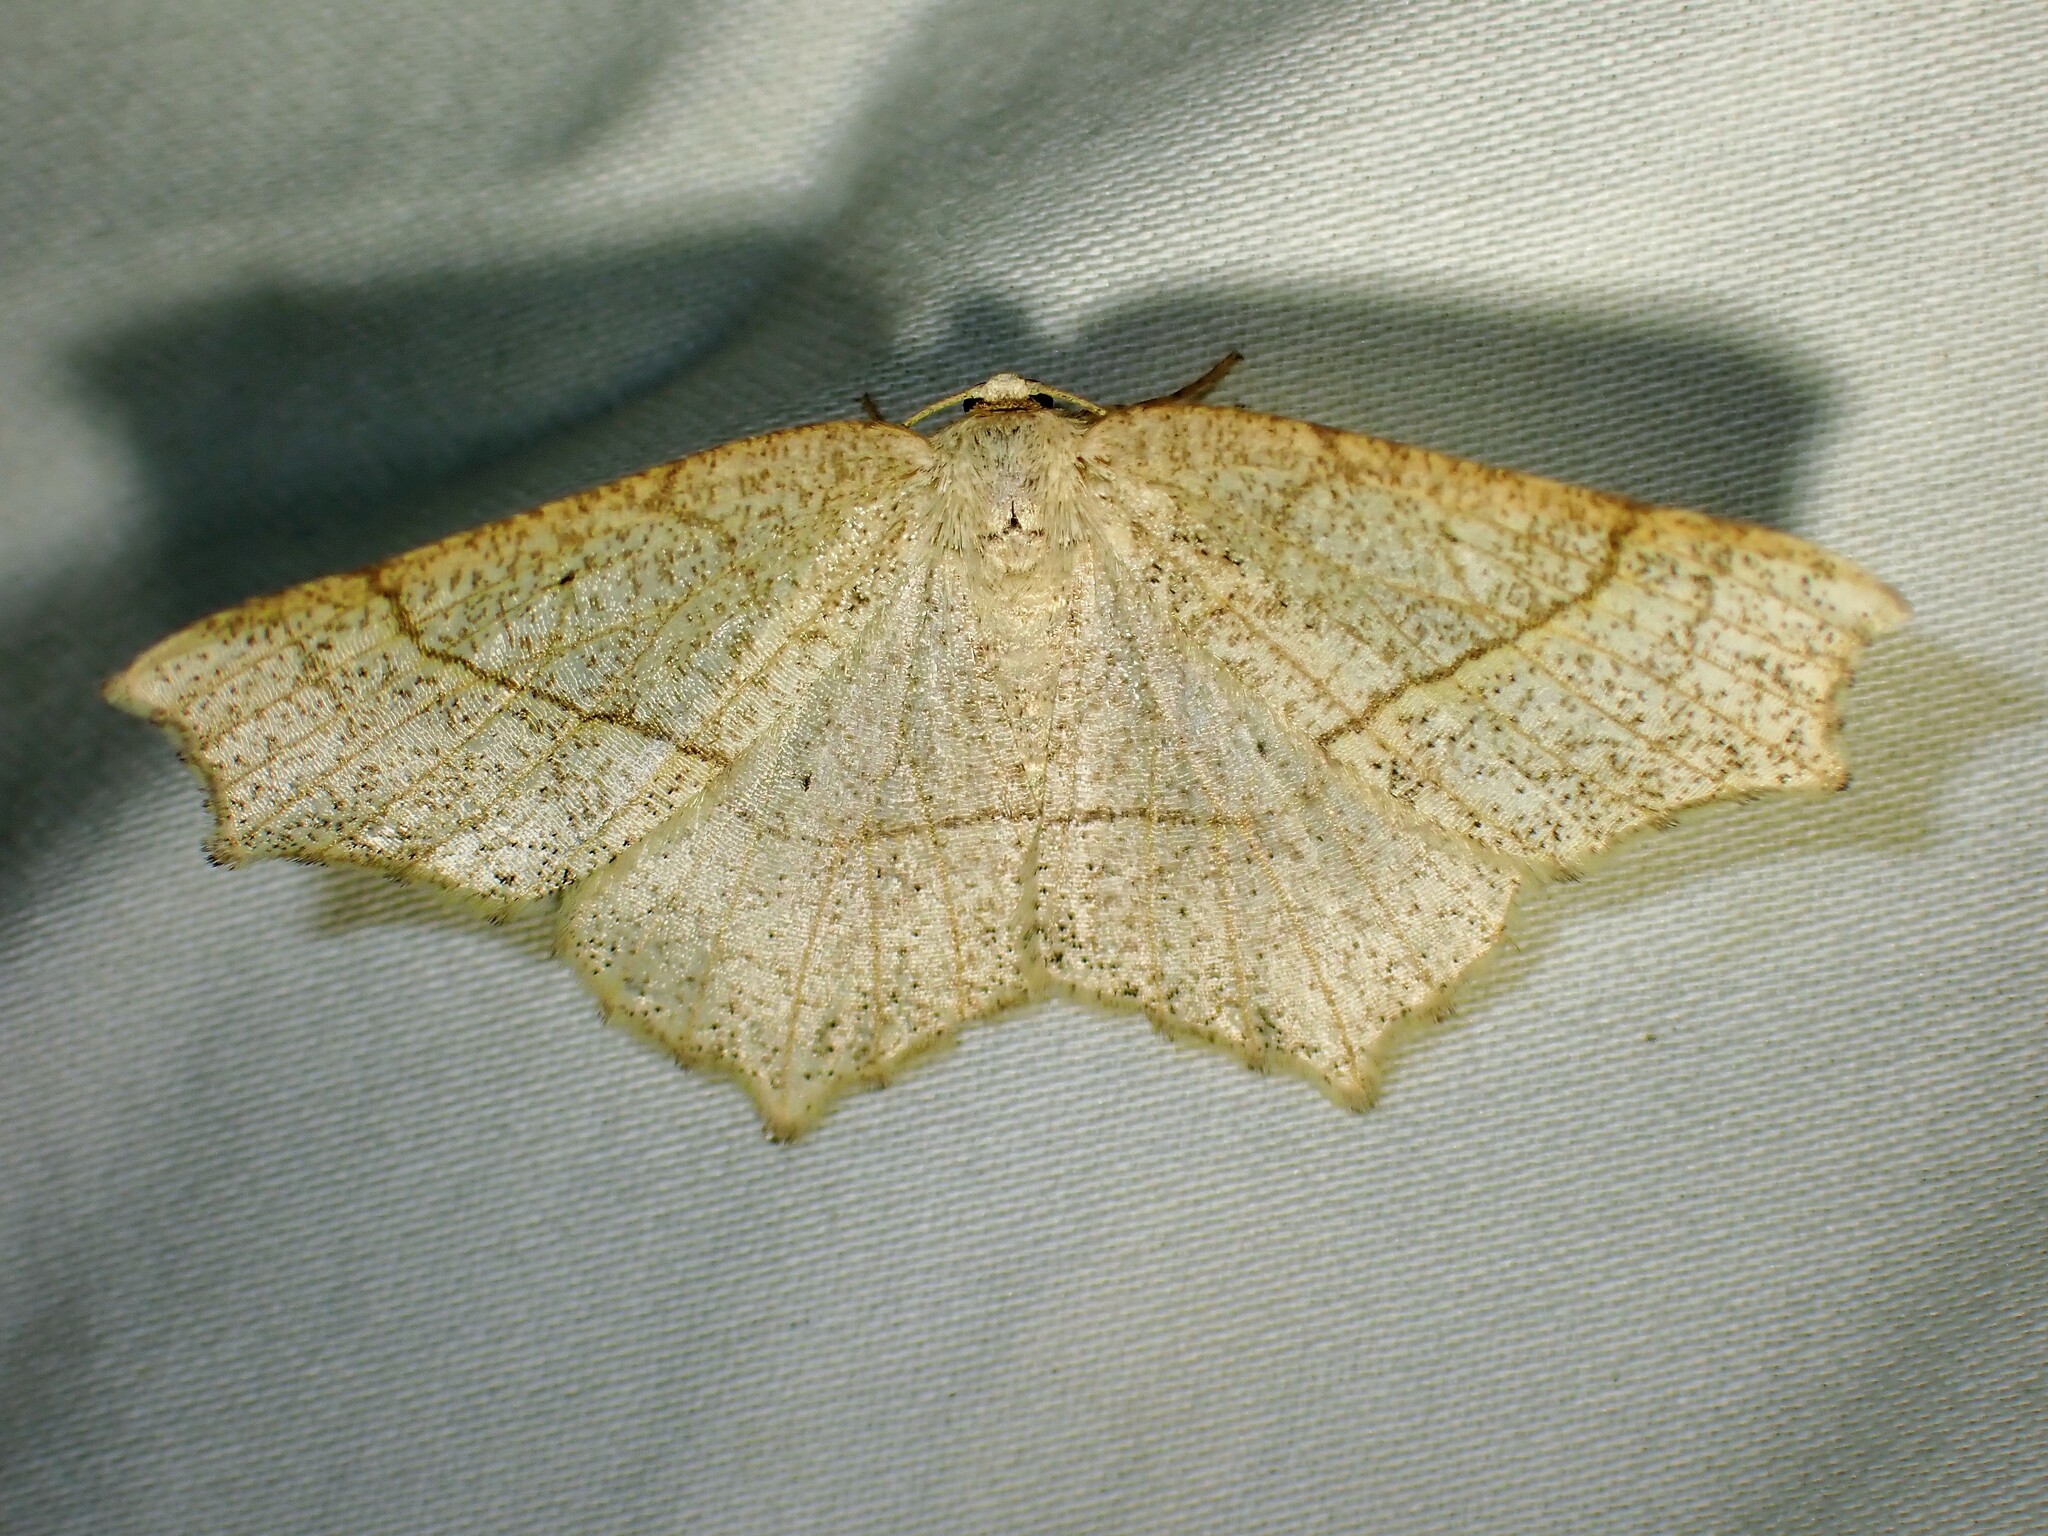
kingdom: Animalia
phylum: Arthropoda
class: Insecta
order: Lepidoptera
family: Geometridae
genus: Besma
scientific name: Besma quercivoraria
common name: Oak besma
